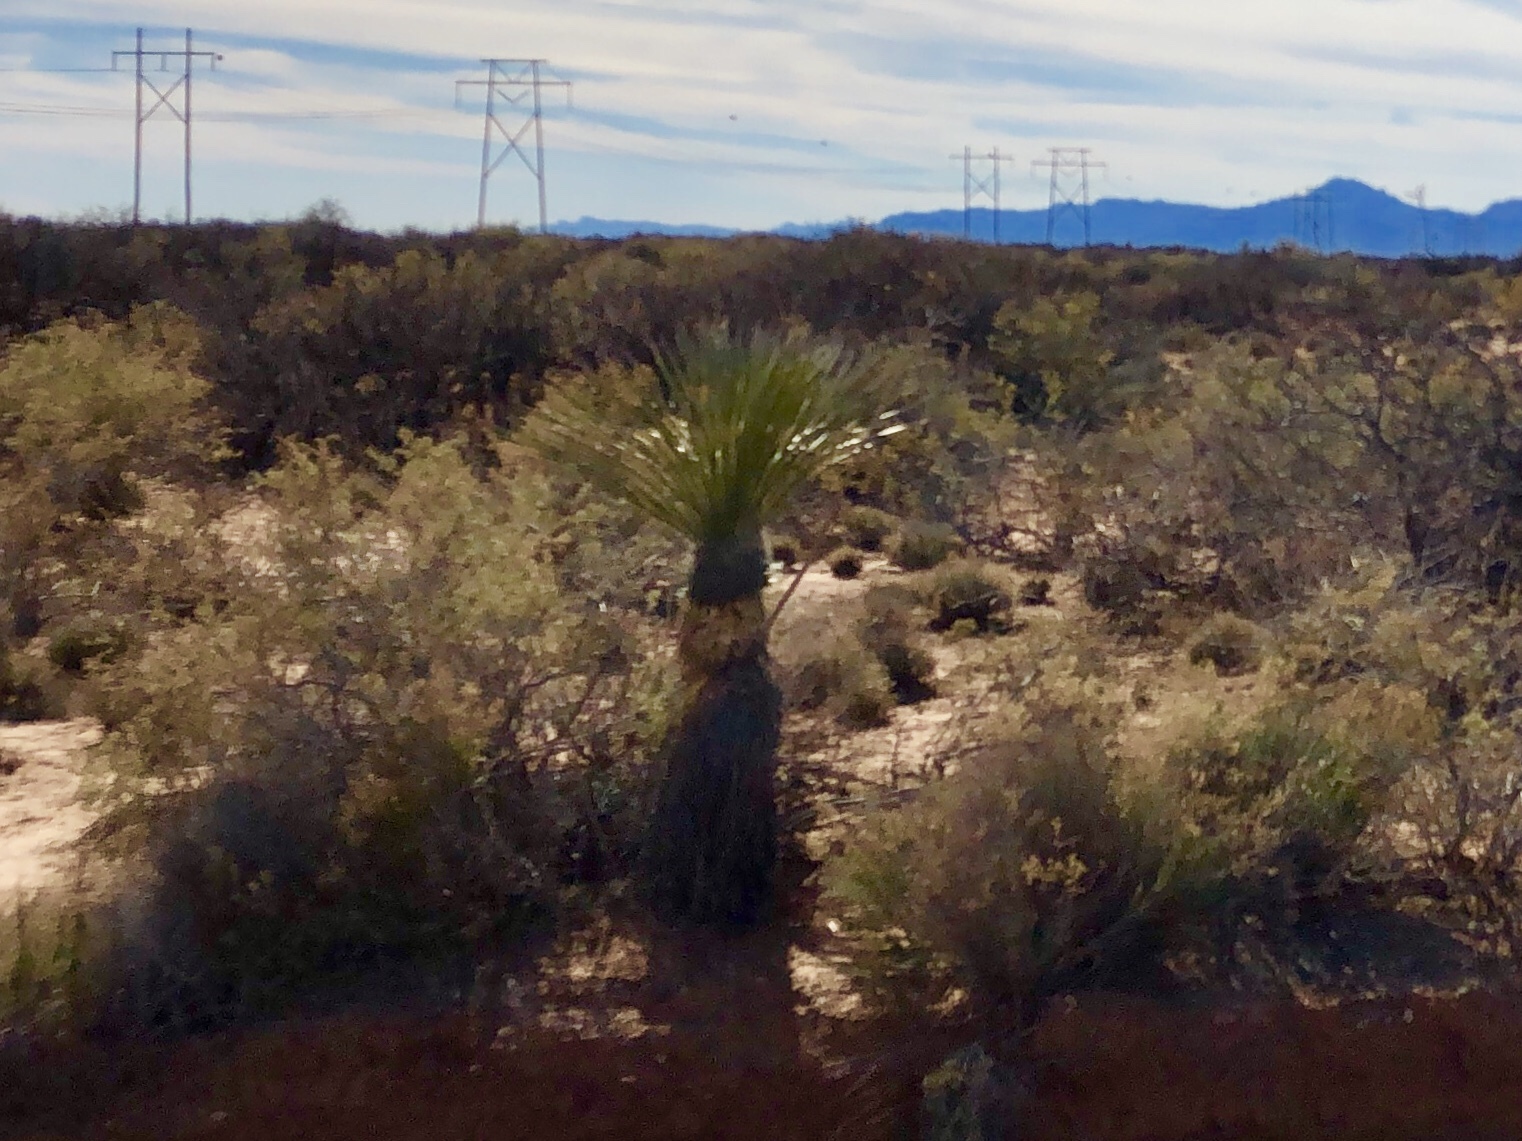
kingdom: Plantae
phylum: Tracheophyta
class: Liliopsida
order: Asparagales
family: Asparagaceae
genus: Yucca
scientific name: Yucca elata
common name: Palmella
